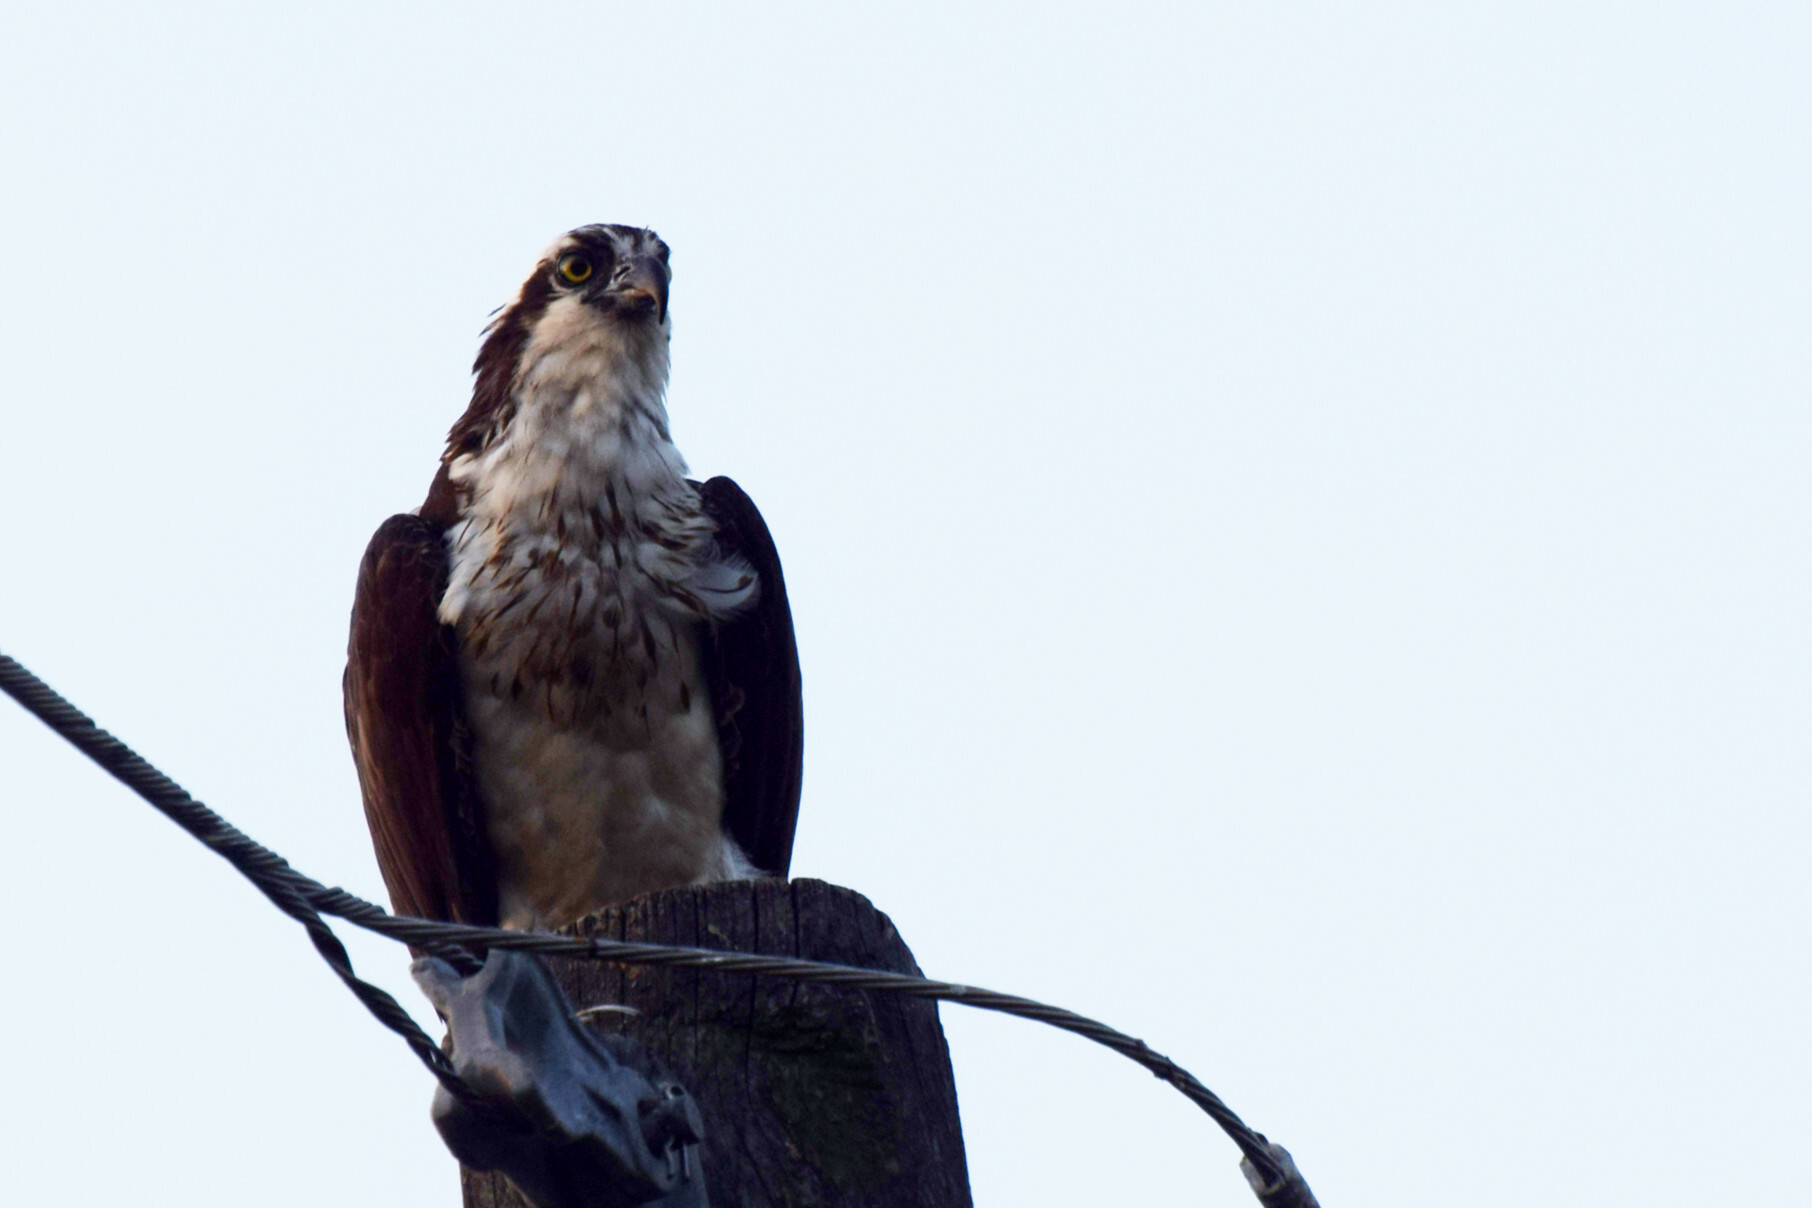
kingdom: Animalia
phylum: Chordata
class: Aves
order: Accipitriformes
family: Pandionidae
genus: Pandion
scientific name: Pandion haliaetus
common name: Osprey
